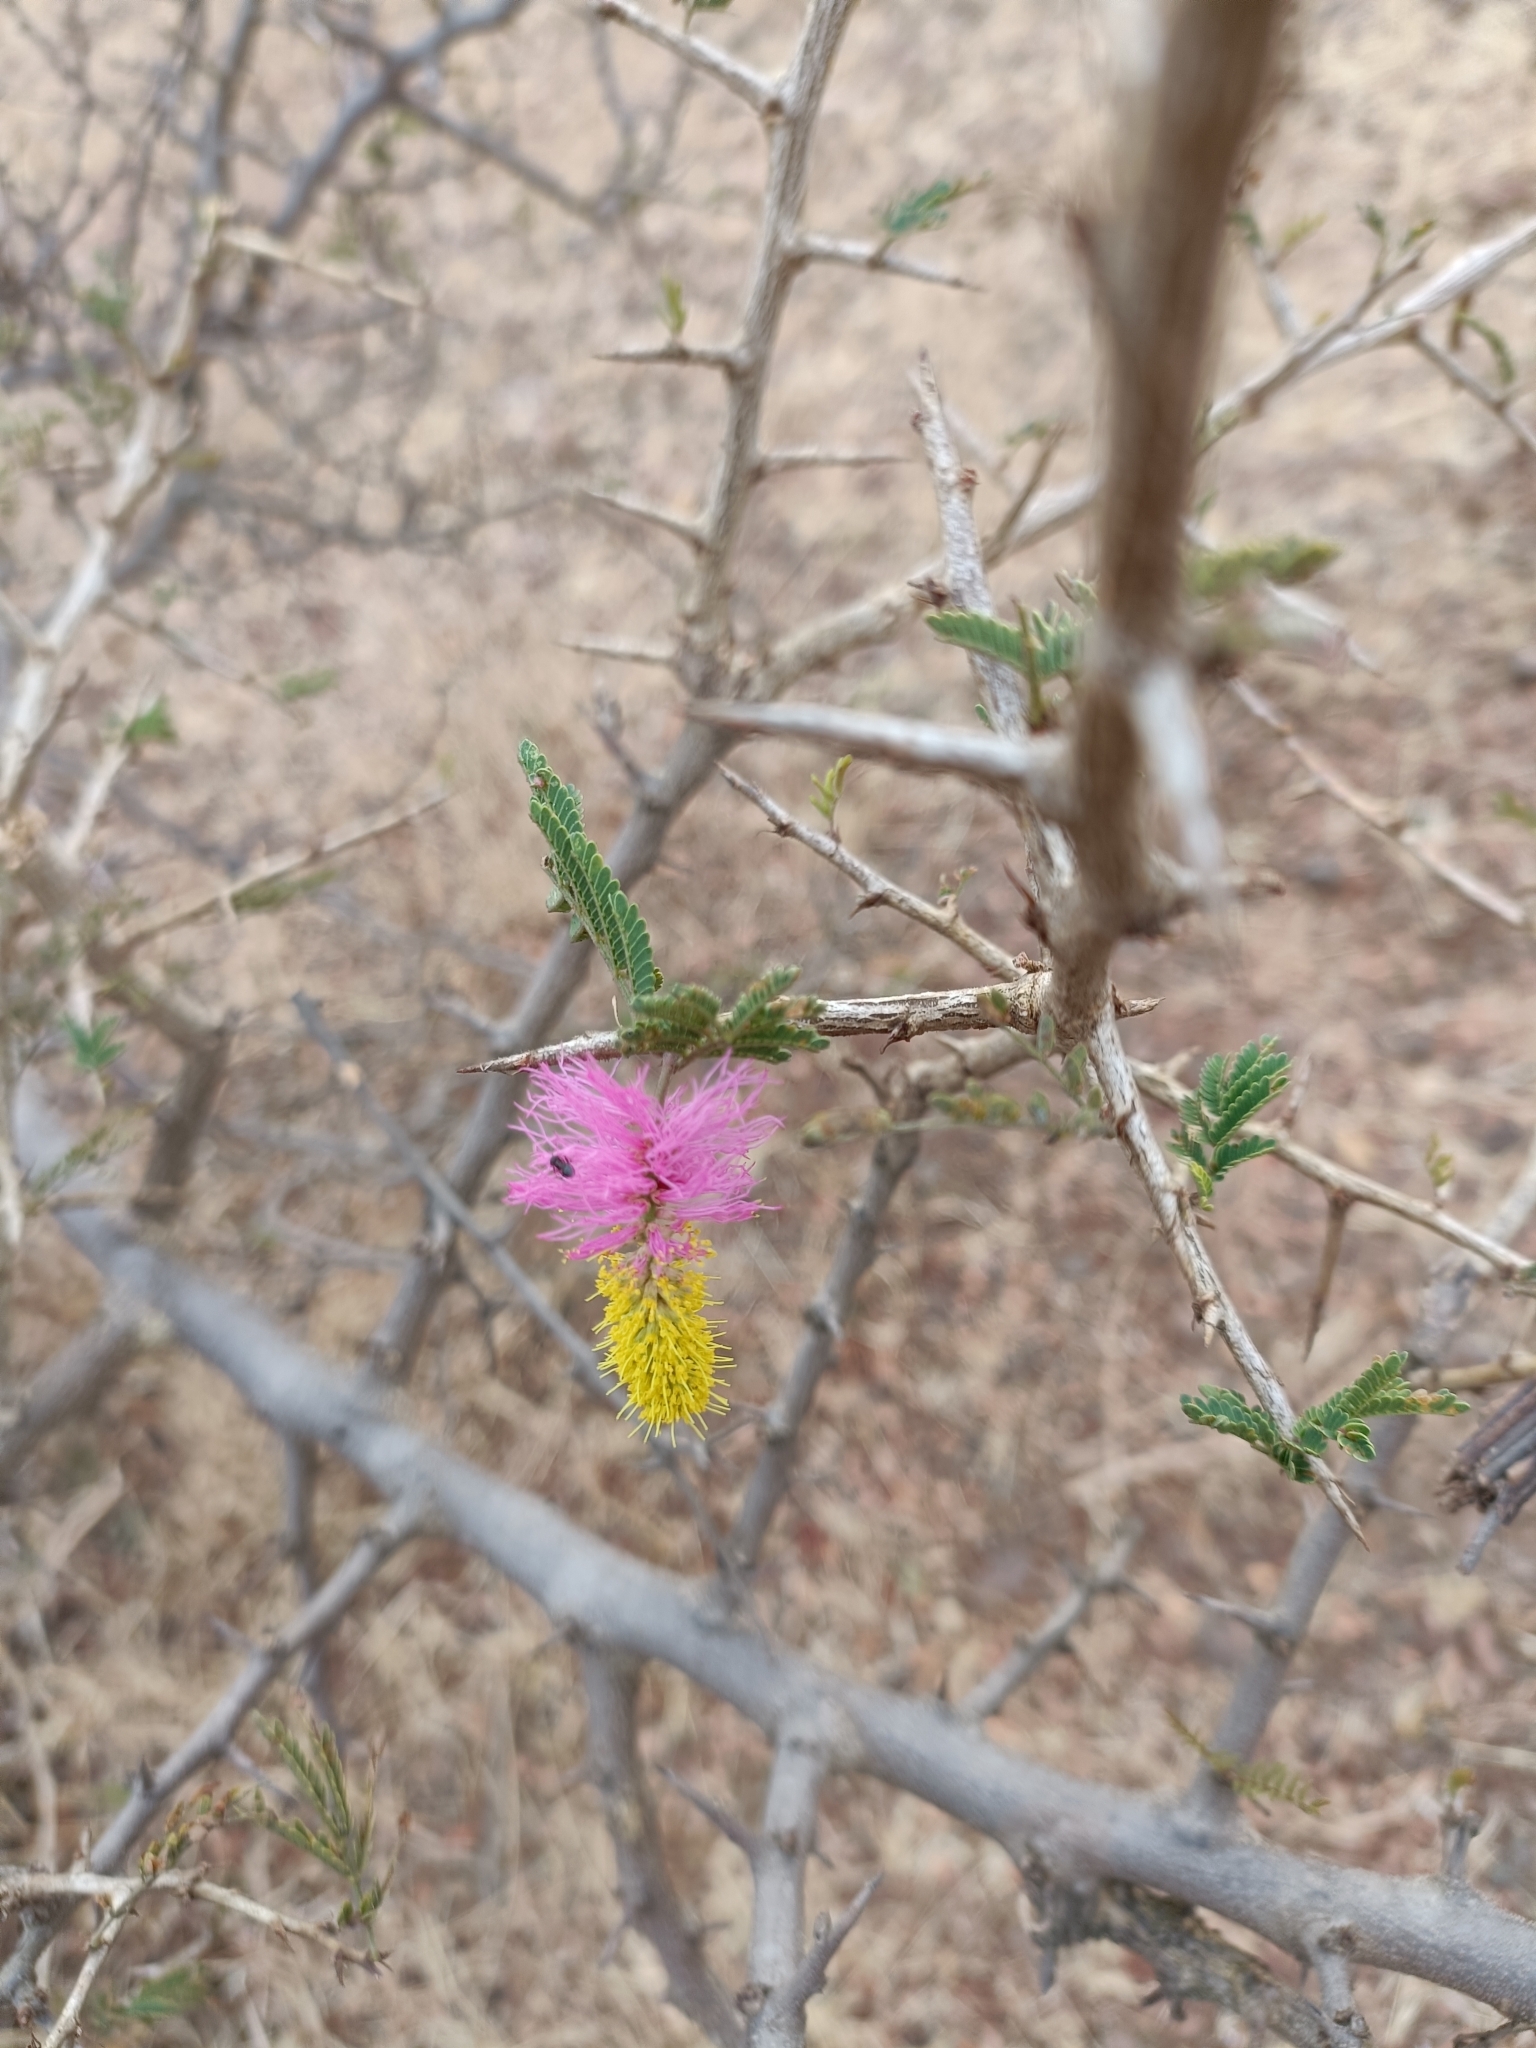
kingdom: Plantae
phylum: Tracheophyta
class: Magnoliopsida
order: Fabales
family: Fabaceae
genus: Dichrostachys
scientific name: Dichrostachys cinerea
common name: Sicklebush
